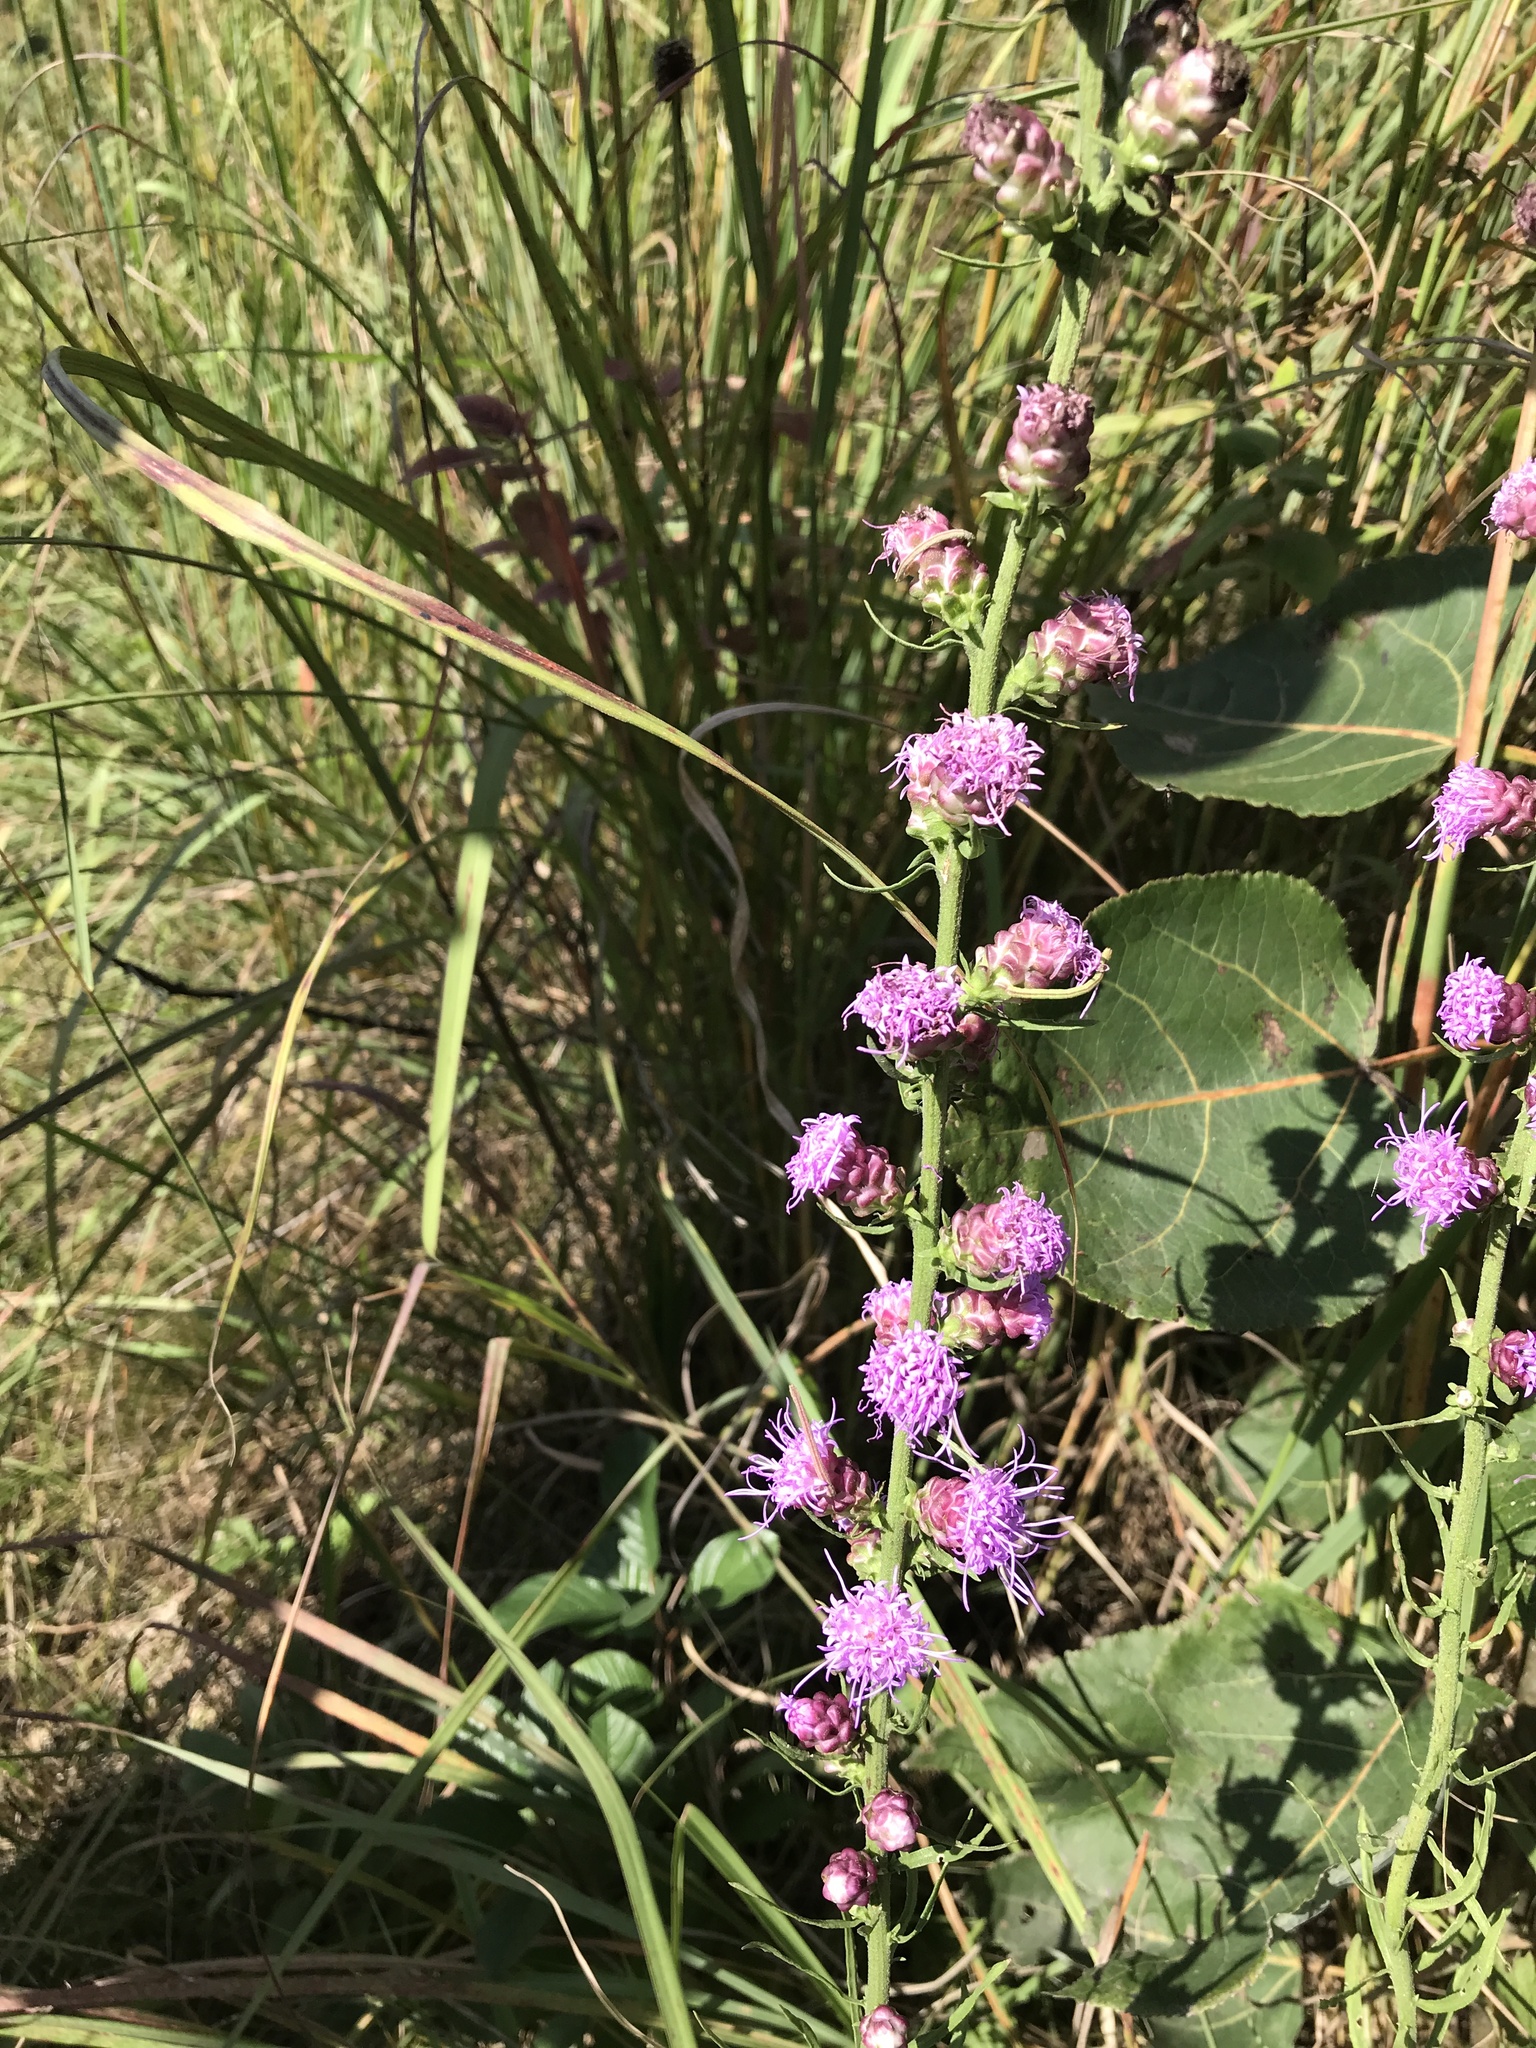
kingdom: Plantae
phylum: Tracheophyta
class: Magnoliopsida
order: Asterales
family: Asteraceae
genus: Liatris
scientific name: Liatris aspera
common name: Lacerate blazing-star
